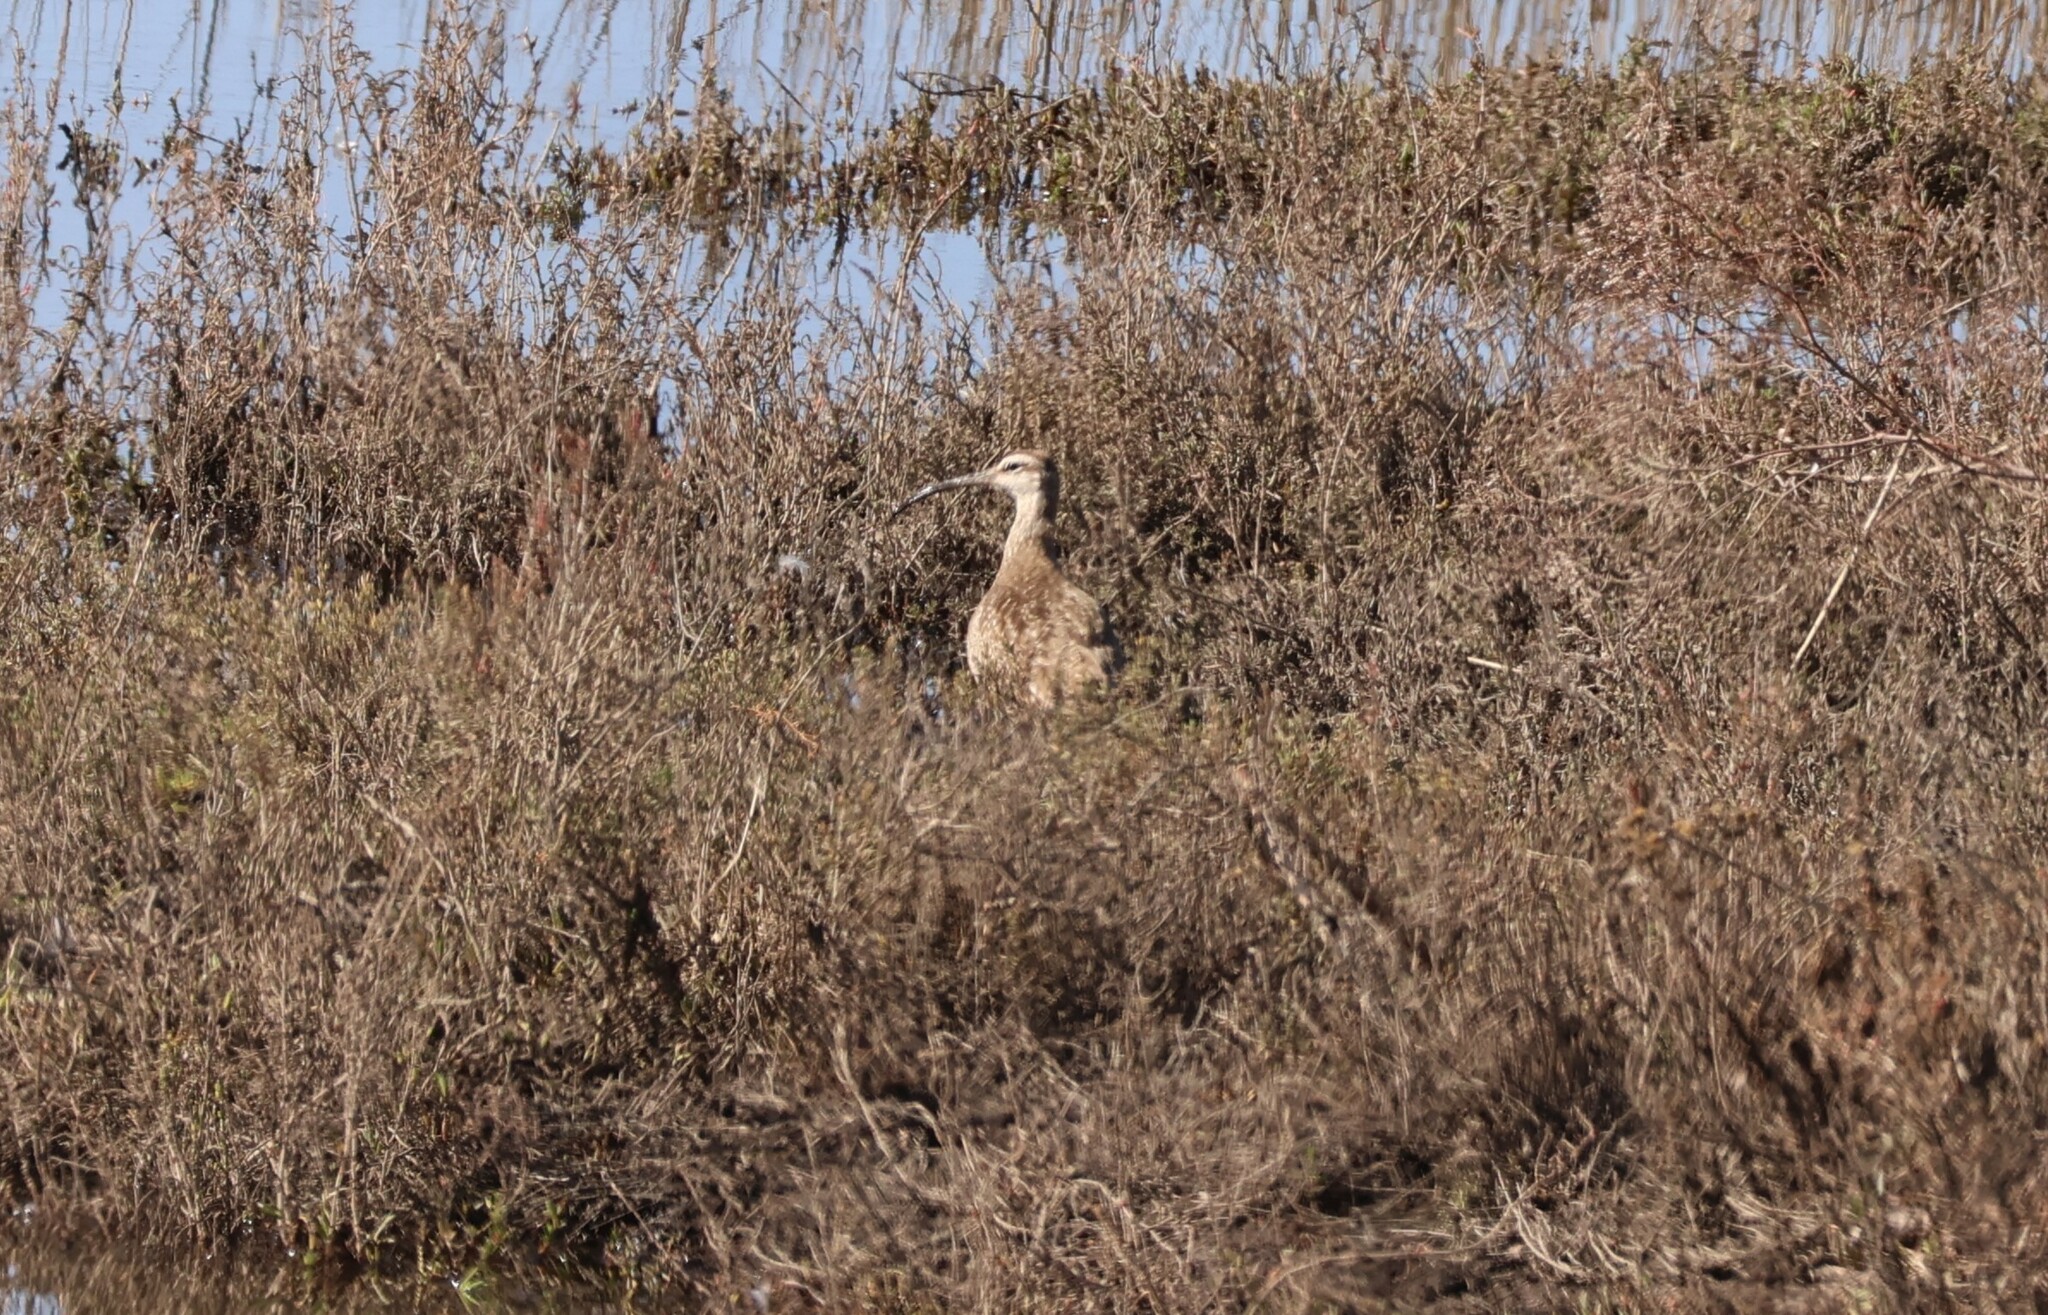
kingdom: Animalia
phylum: Chordata
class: Aves
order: Charadriiformes
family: Scolopacidae
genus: Numenius
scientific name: Numenius phaeopus
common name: Whimbrel
